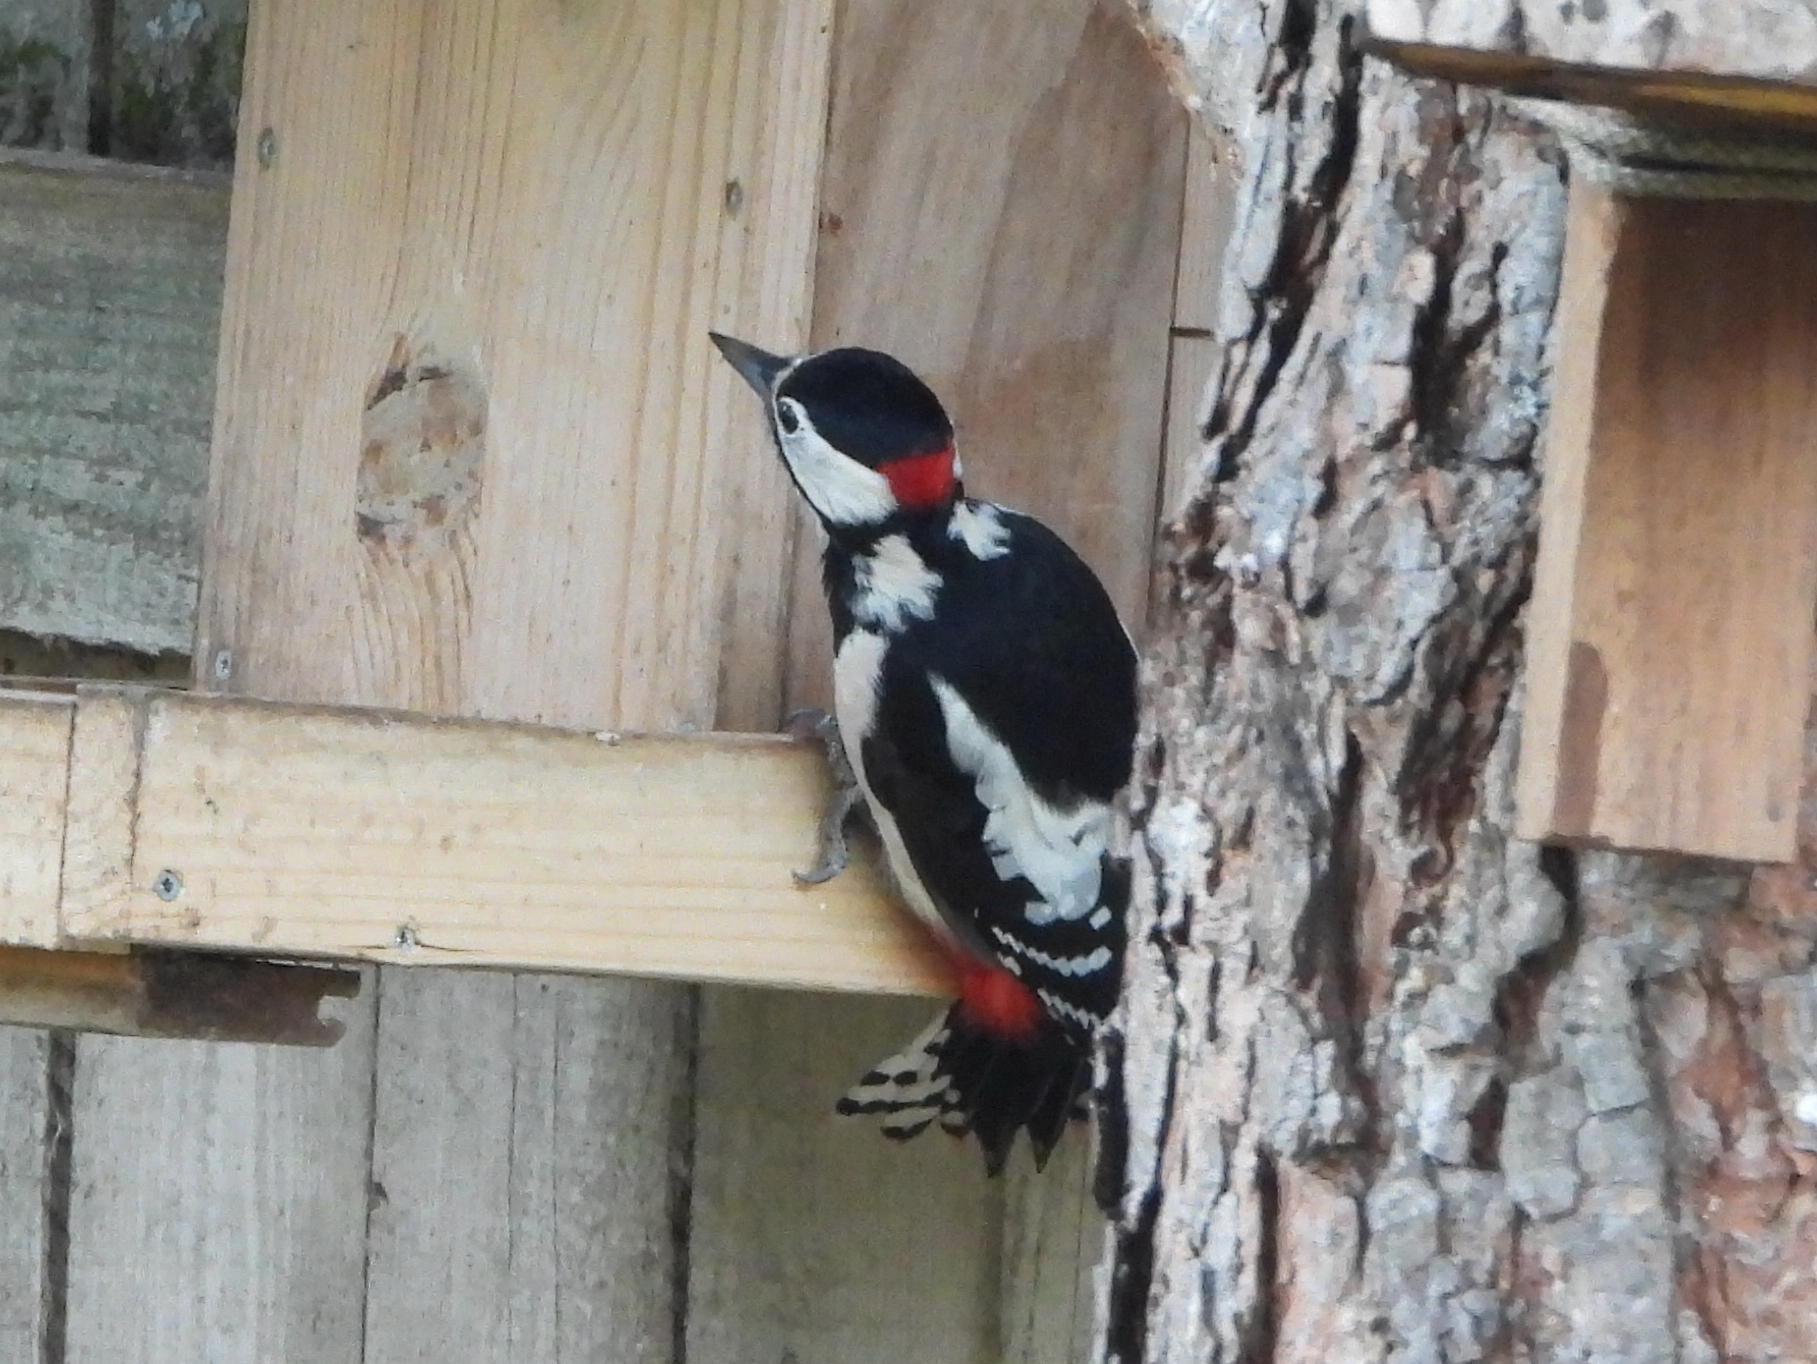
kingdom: Animalia
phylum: Chordata
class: Aves
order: Piciformes
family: Picidae
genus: Dendrocopos
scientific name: Dendrocopos major
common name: Great spotted woodpecker
